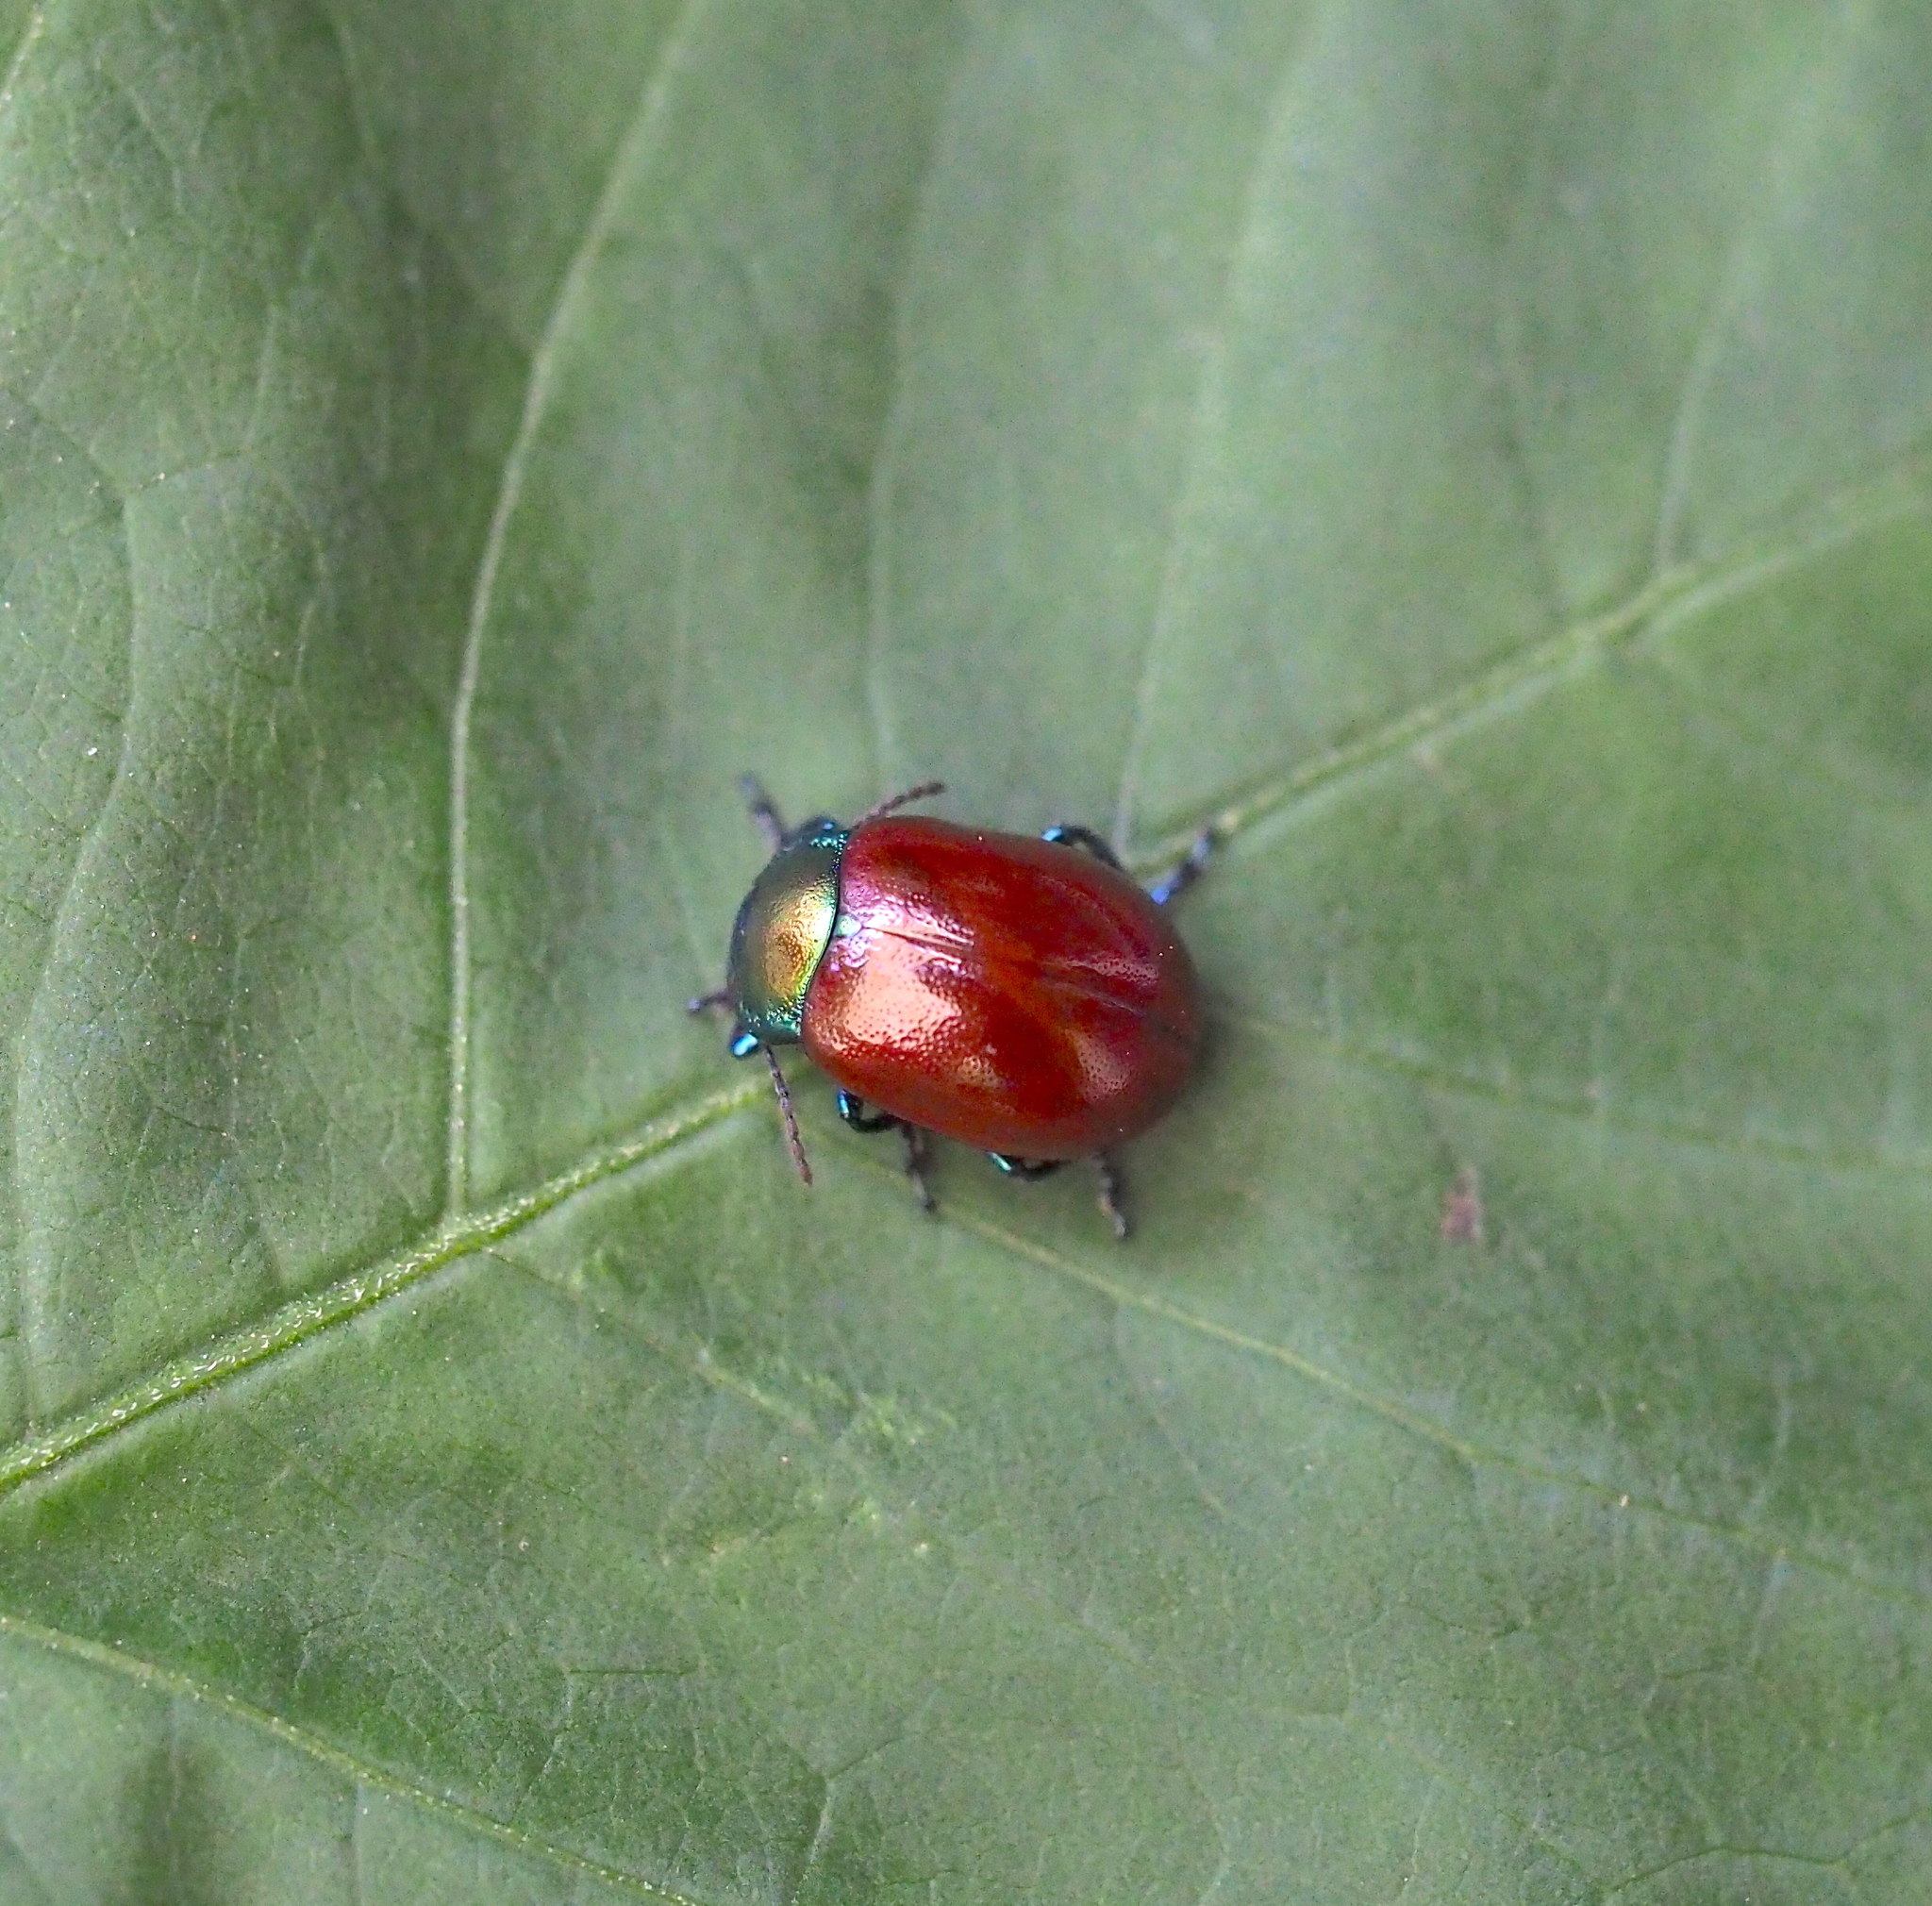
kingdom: Animalia
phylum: Arthropoda
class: Insecta
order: Coleoptera
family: Chrysomelidae
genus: Chrysomela
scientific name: Chrysomela polita
